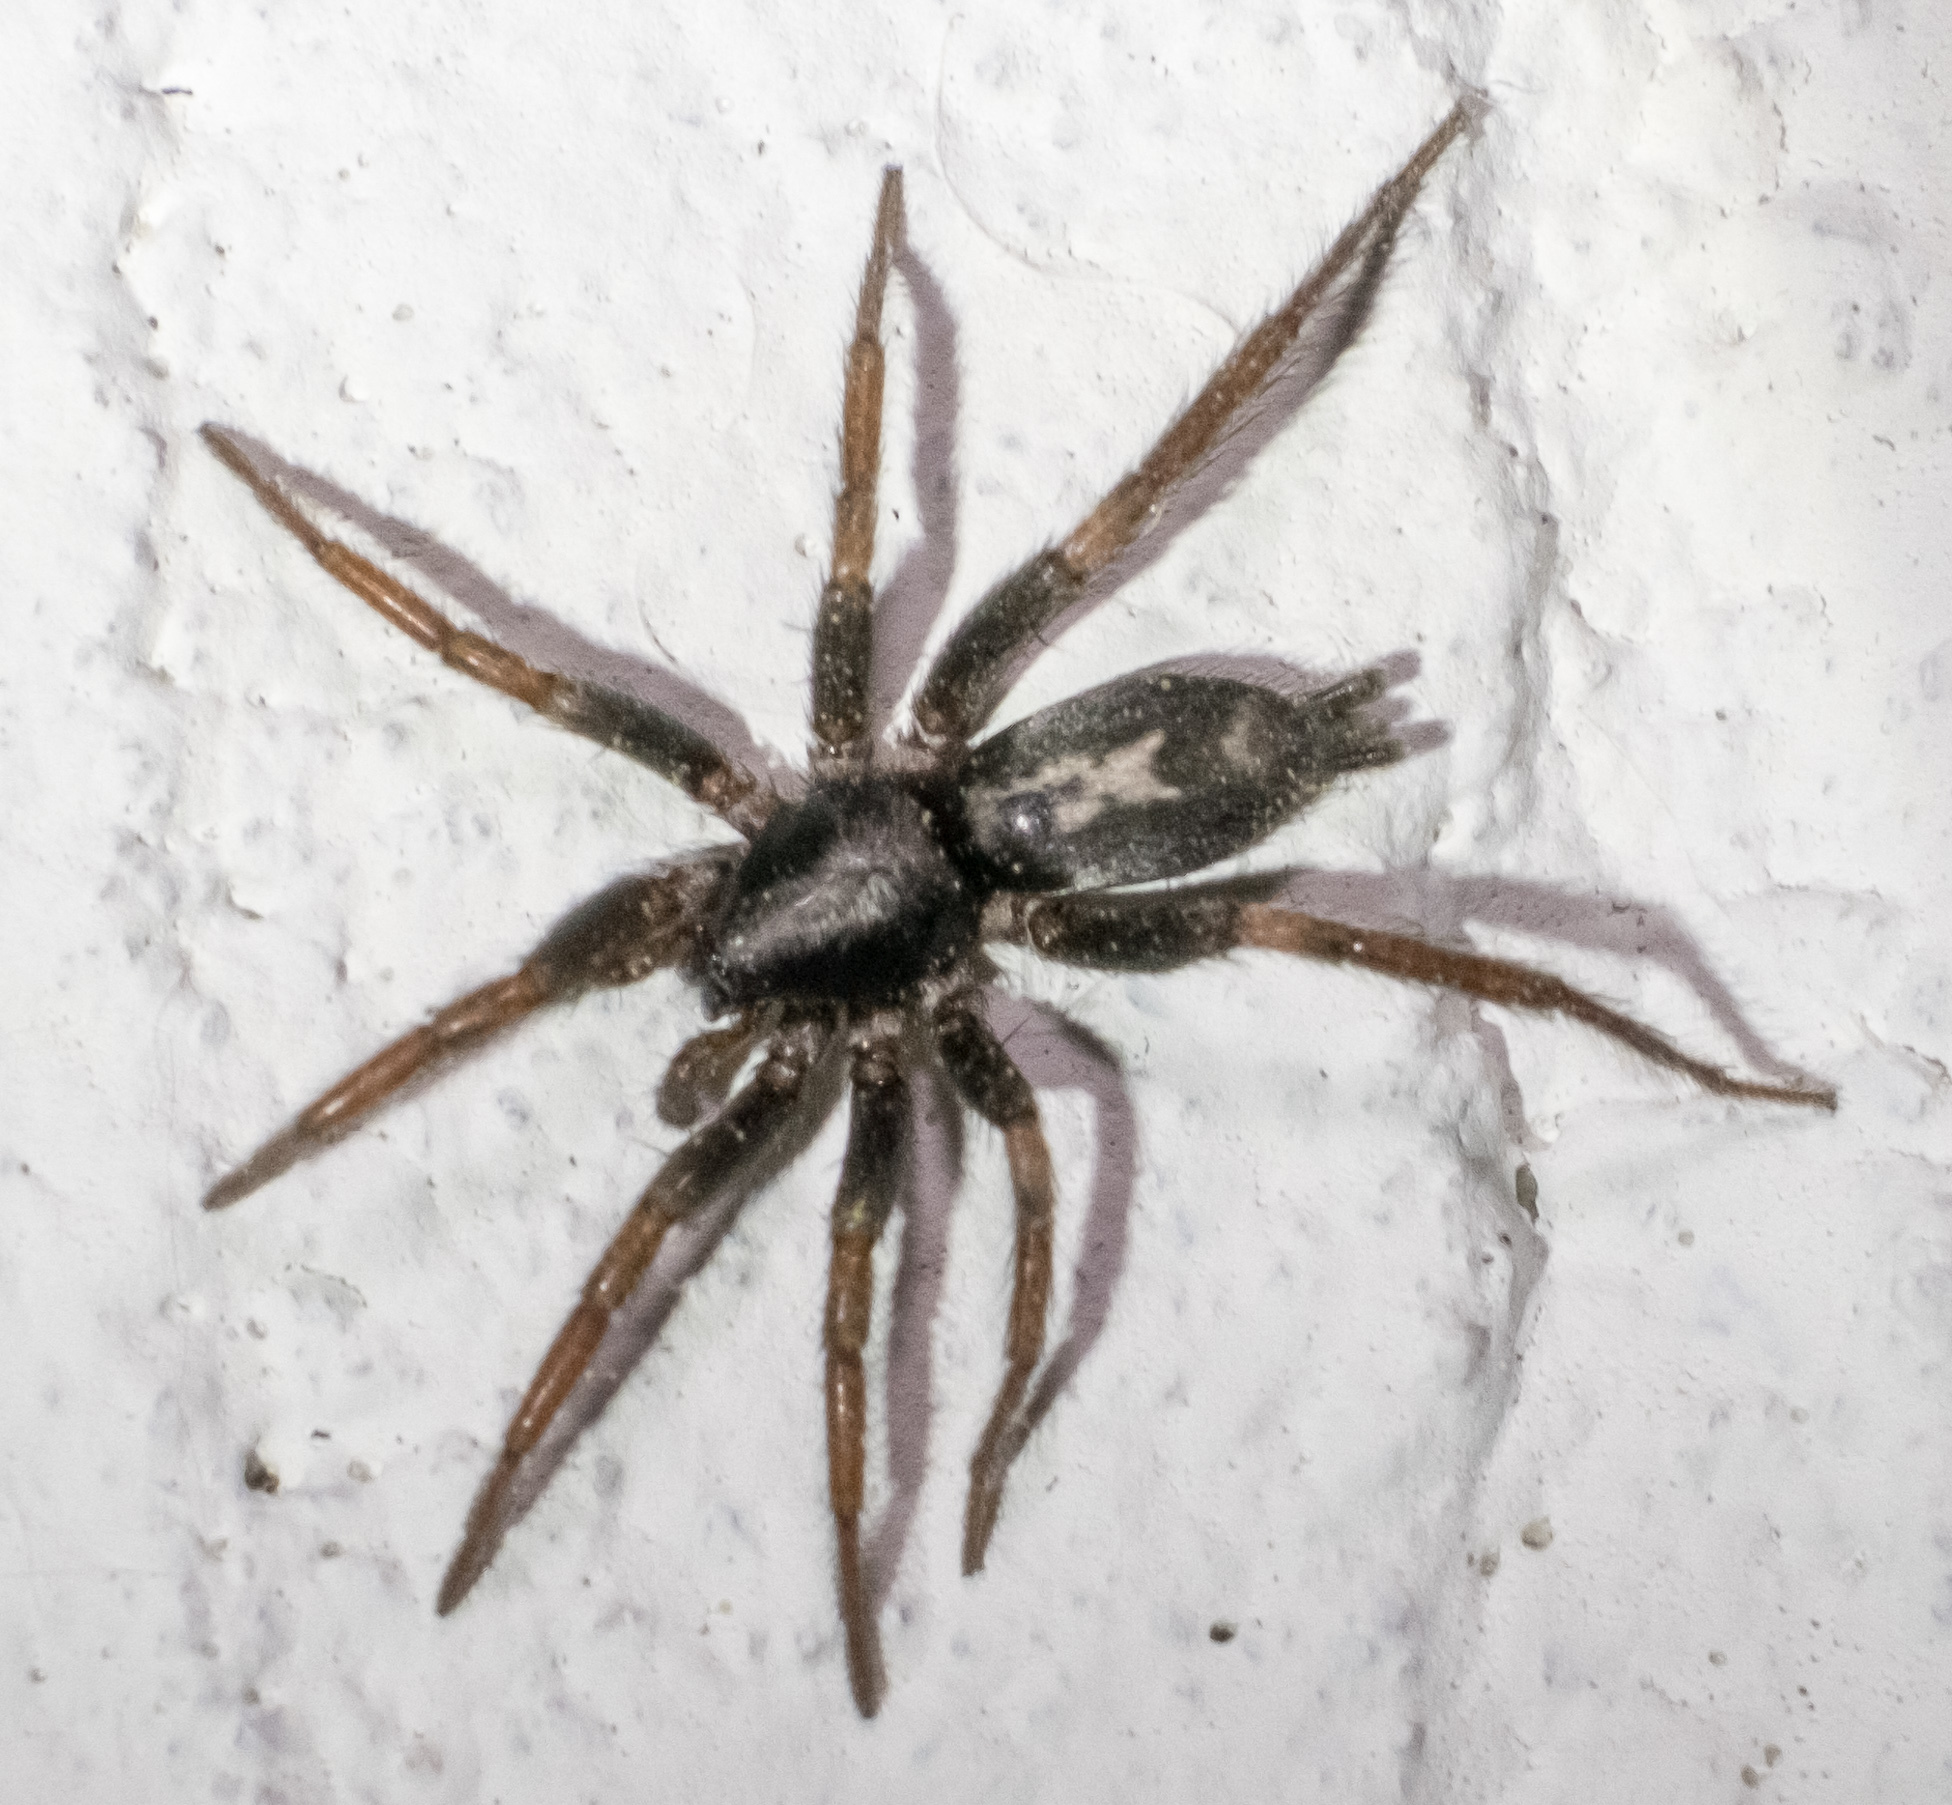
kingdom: Animalia
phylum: Arthropoda
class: Arachnida
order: Araneae
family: Gnaphosidae
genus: Herpyllus
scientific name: Herpyllus ecclesiasticus
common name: Eastern parson spider
